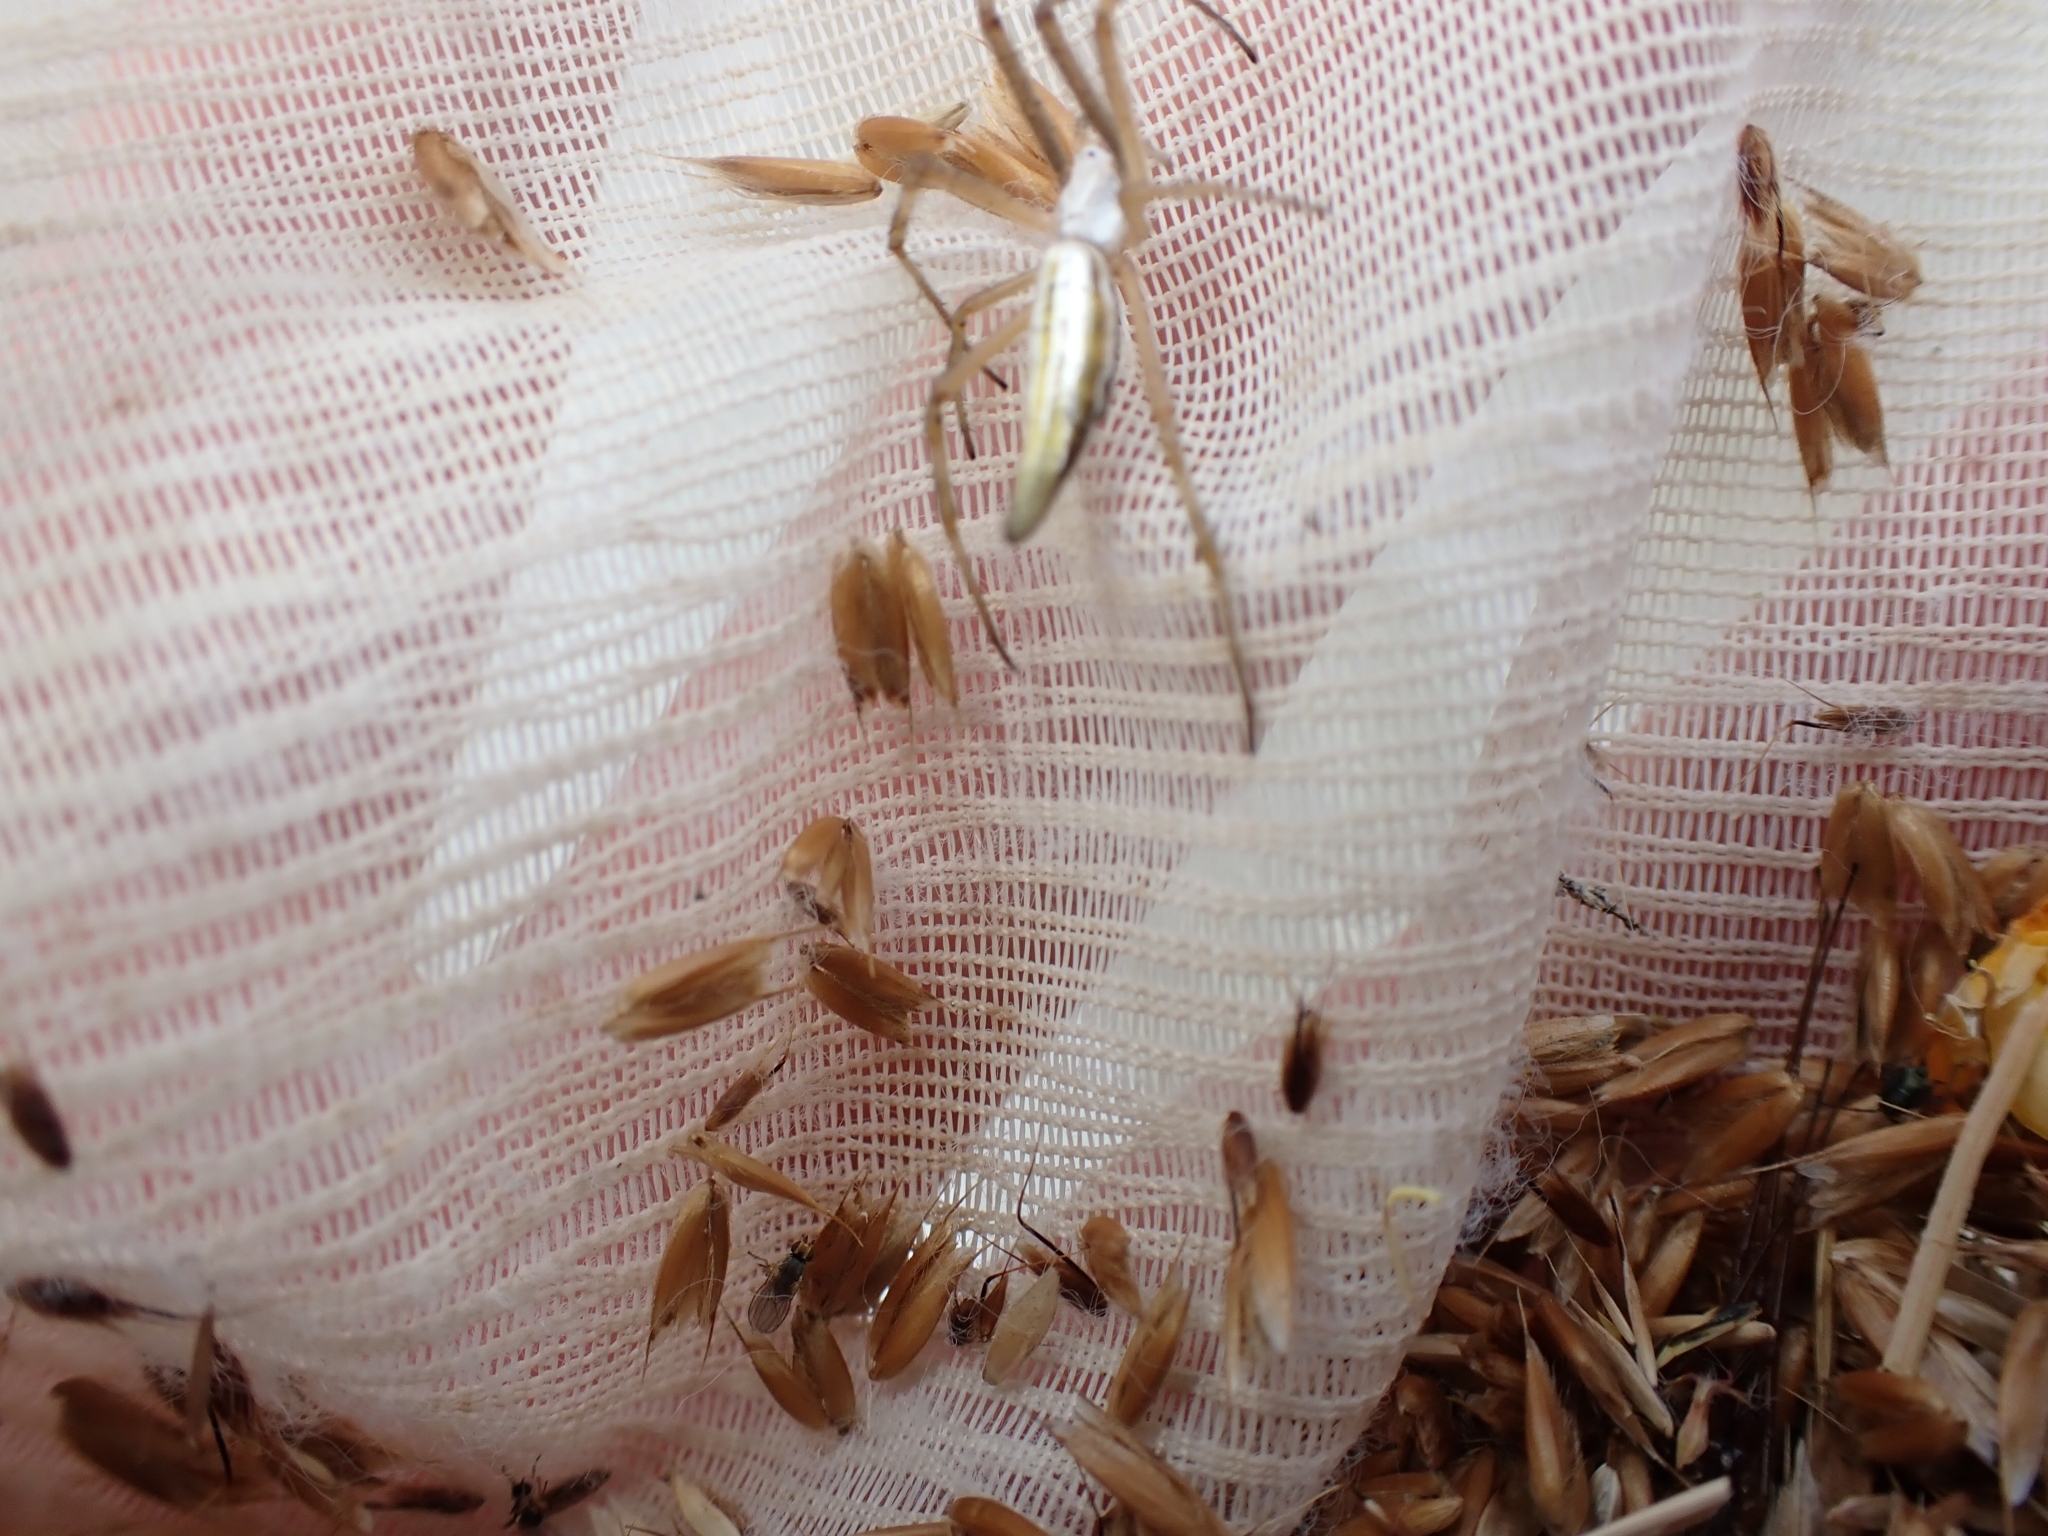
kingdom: Animalia
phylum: Arthropoda
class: Arachnida
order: Araneae
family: Araneidae
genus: Argiope
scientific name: Argiope protensa
